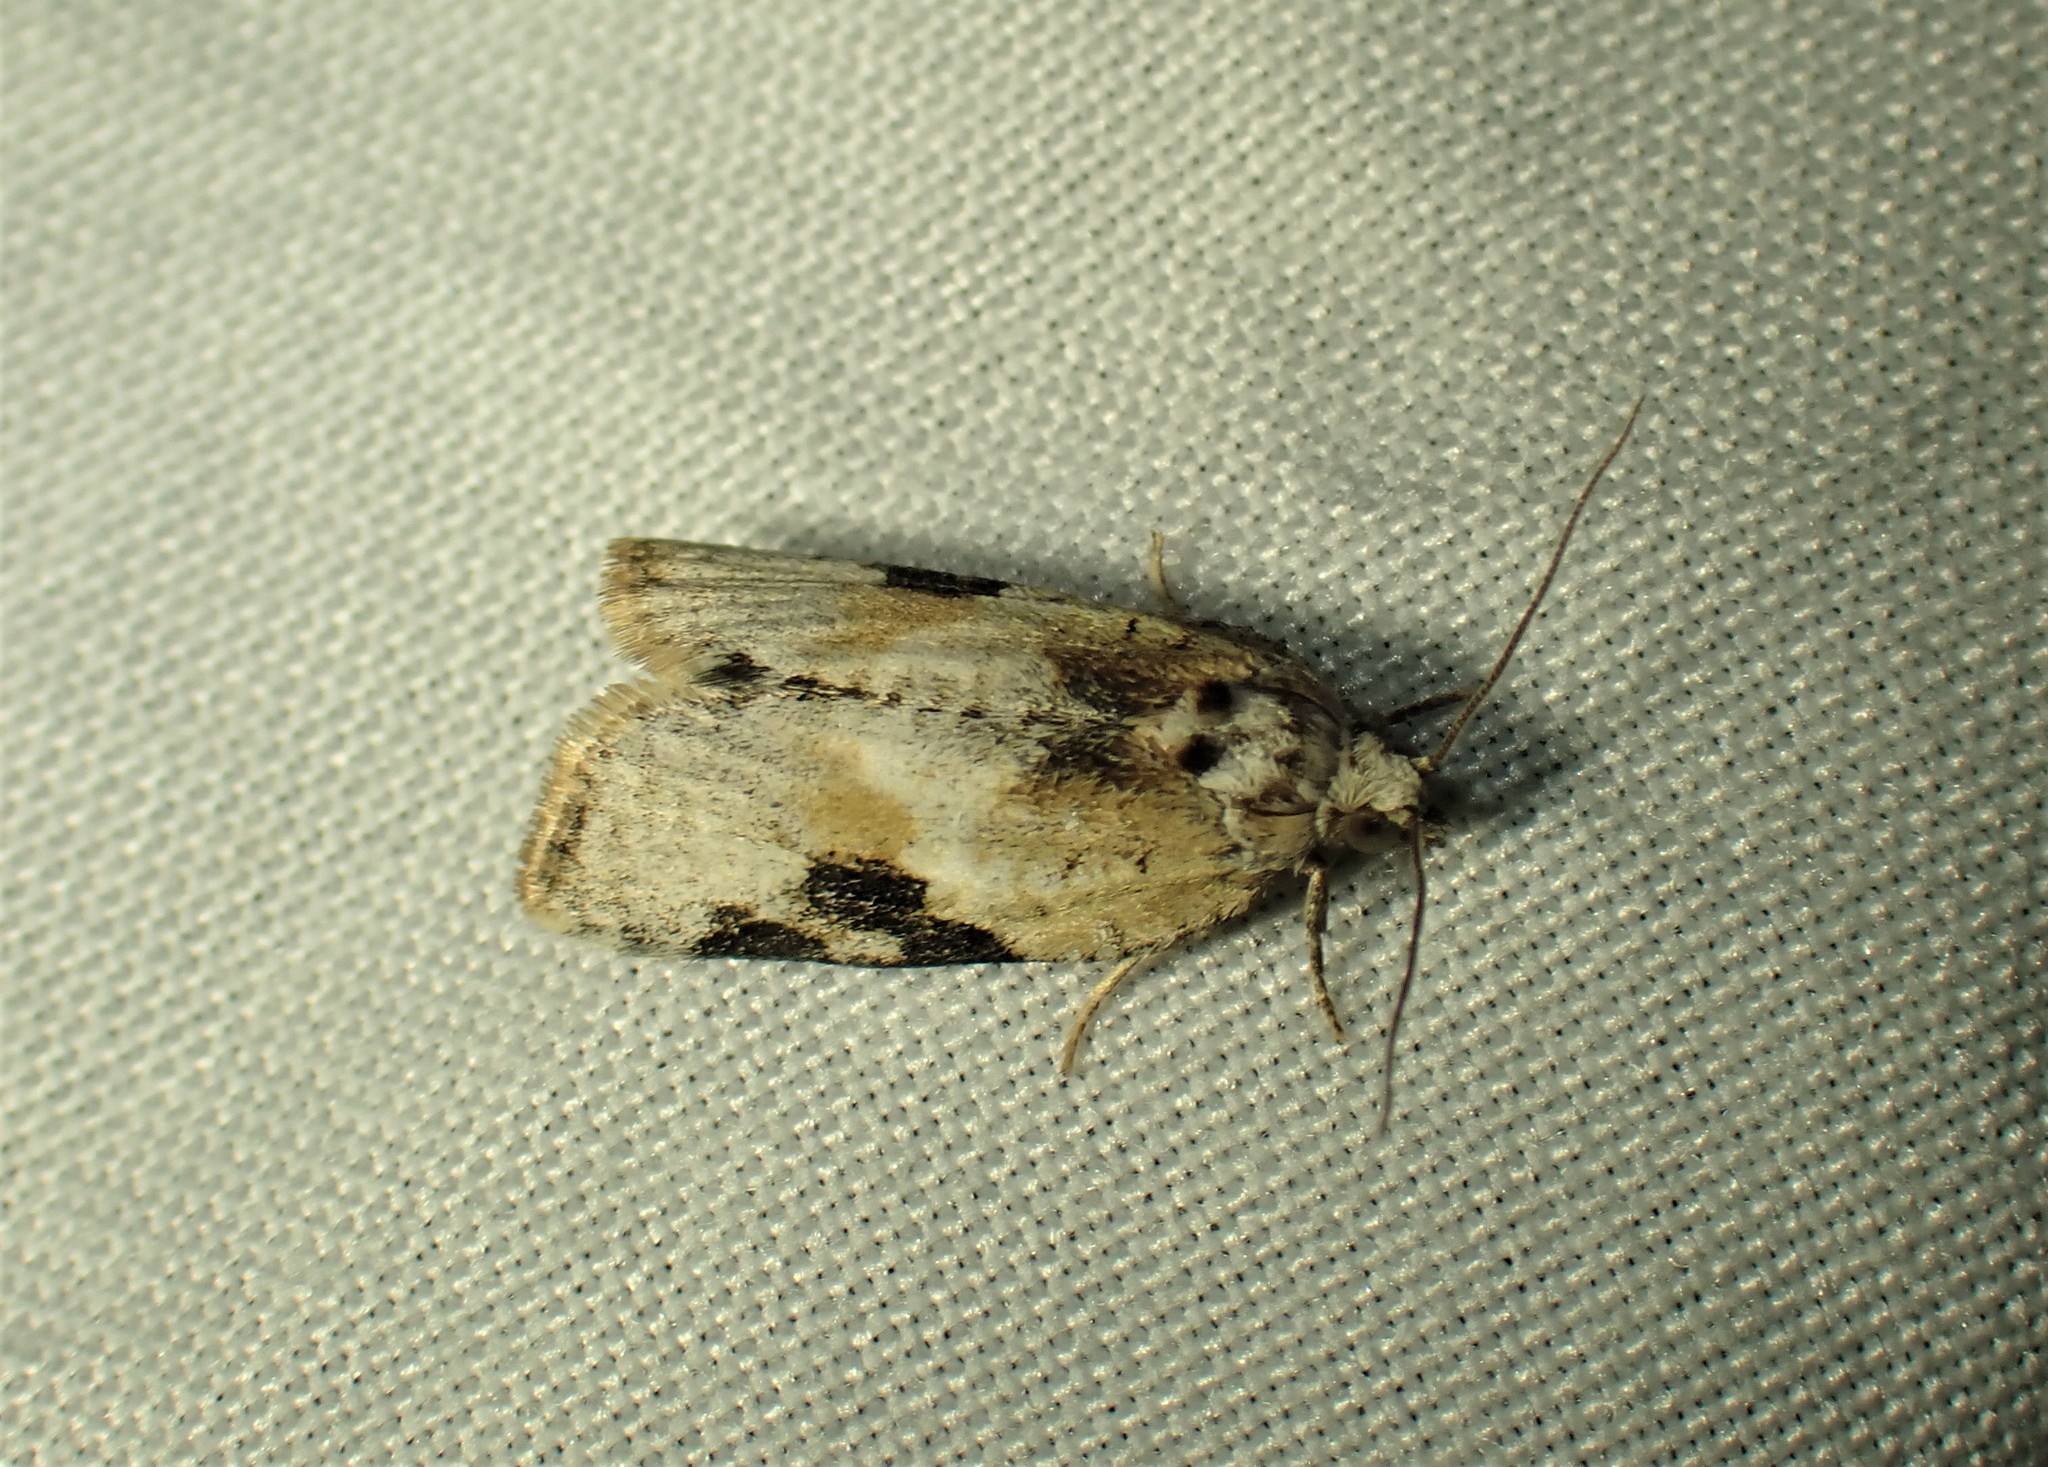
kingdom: Animalia
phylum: Arthropoda
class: Insecta
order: Lepidoptera
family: Tortricidae
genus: Argyrotaenia
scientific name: Argyrotaenia mariana
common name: Gray-banded leafroller moth
